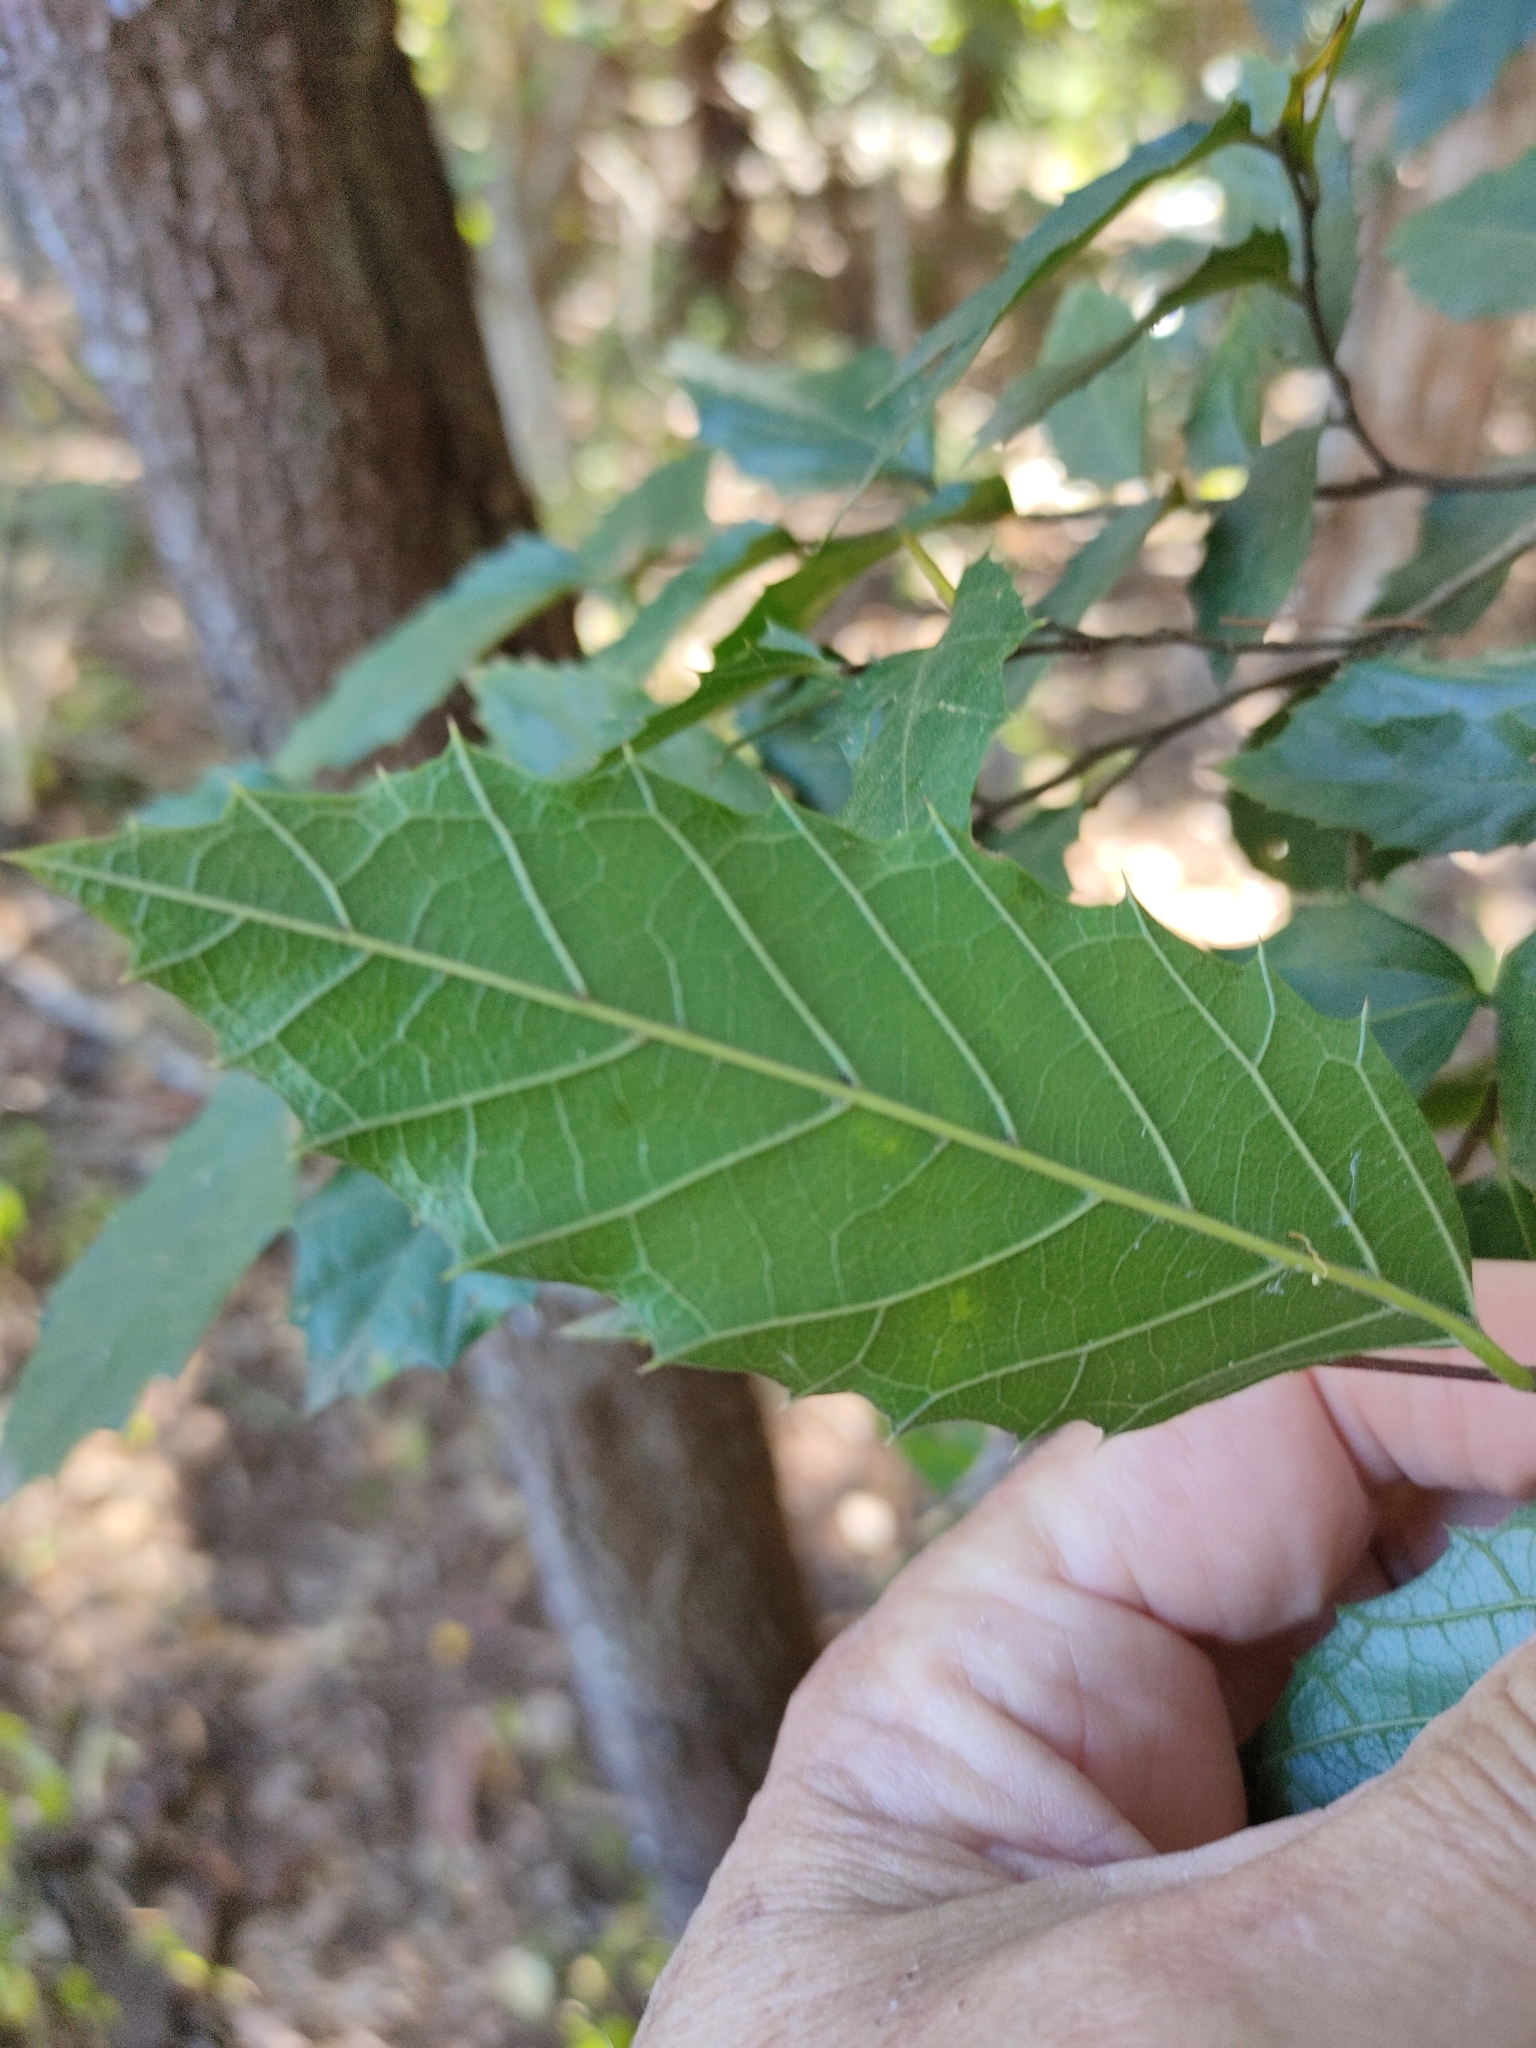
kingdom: Plantae
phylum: Tracheophyta
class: Magnoliopsida
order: Rosales
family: Cannabaceae
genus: Aphananthe
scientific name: Aphananthe philippinensis
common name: Wild holly
